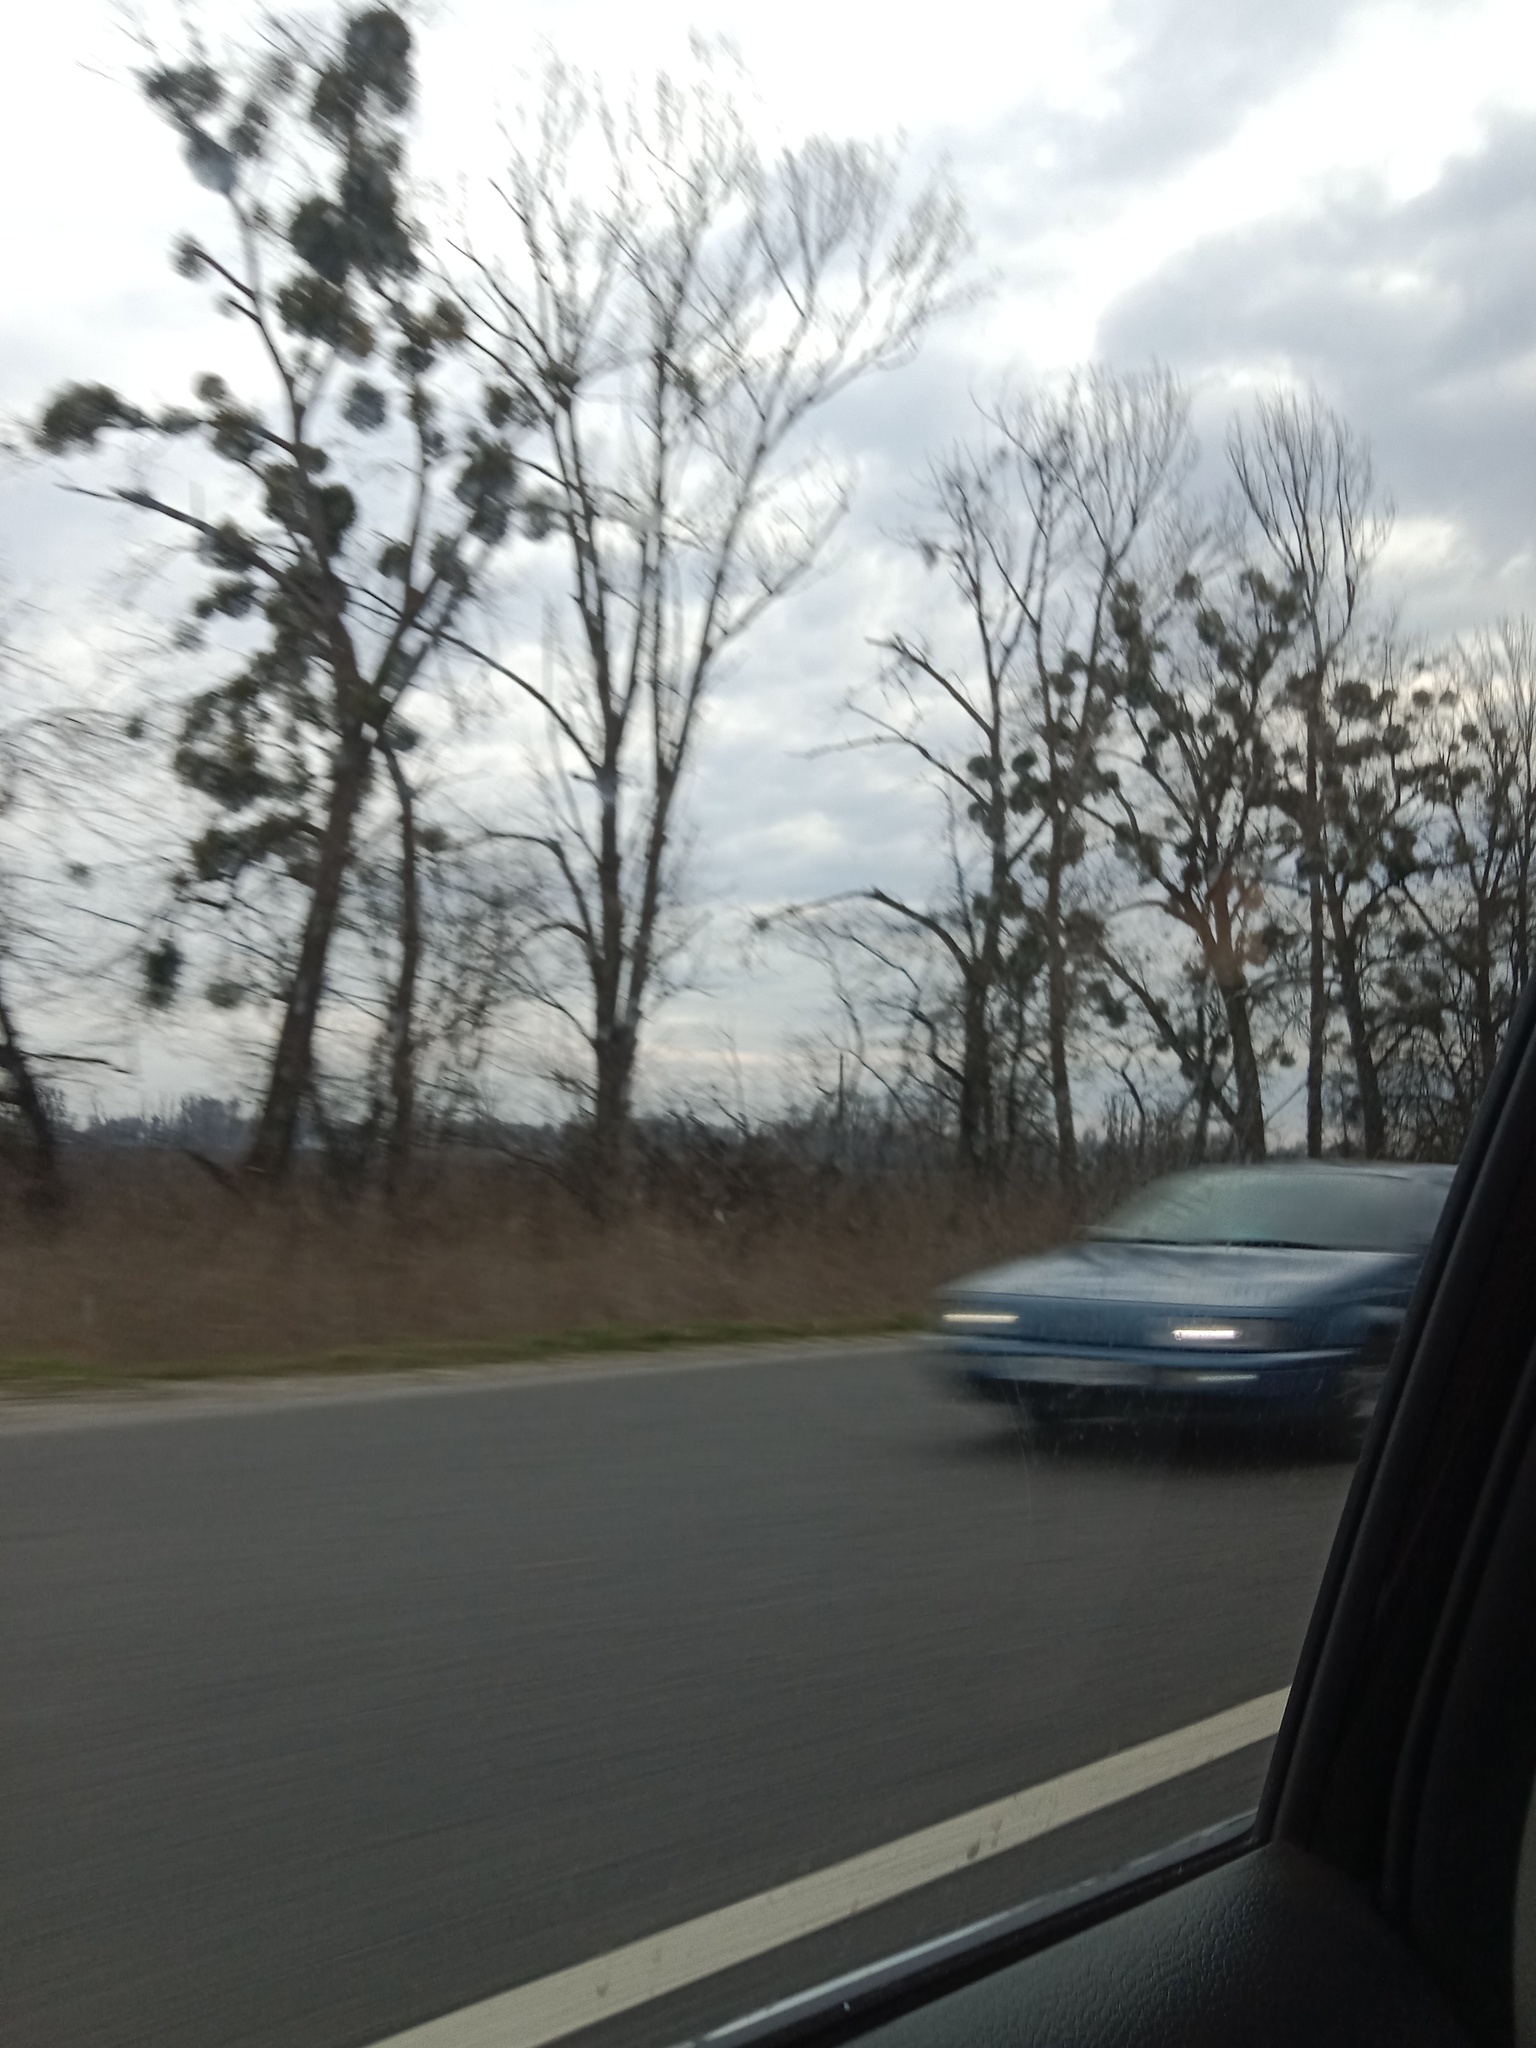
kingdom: Plantae
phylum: Tracheophyta
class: Magnoliopsida
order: Santalales
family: Viscaceae
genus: Viscum
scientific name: Viscum album
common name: Mistletoe
